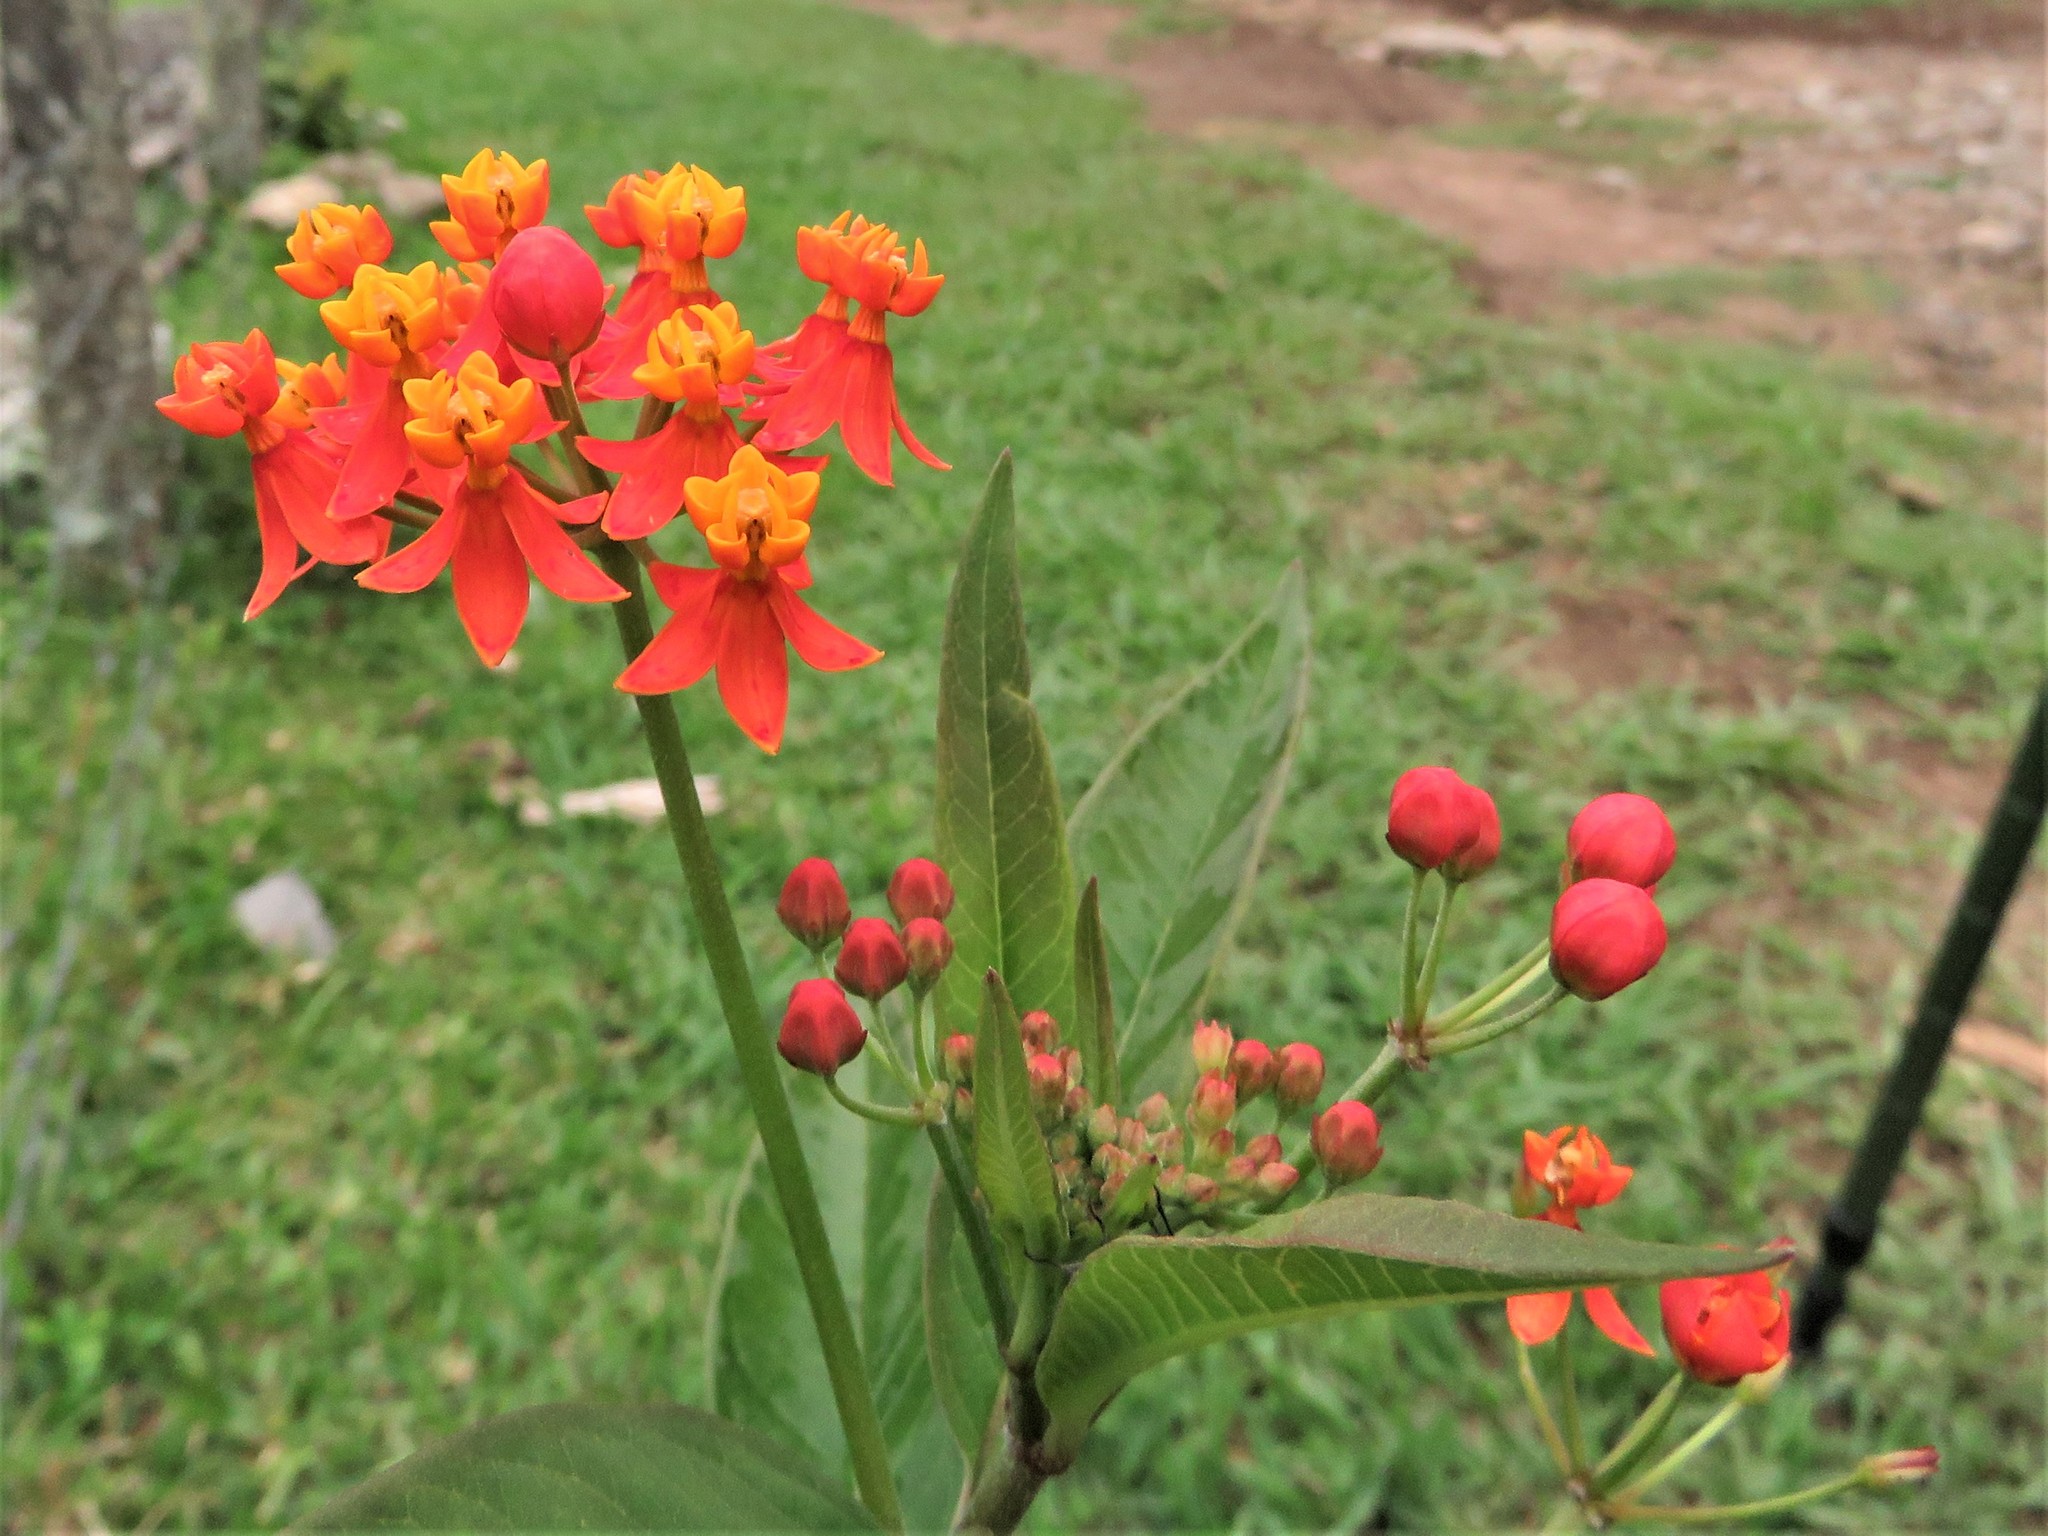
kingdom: Plantae
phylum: Tracheophyta
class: Magnoliopsida
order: Gentianales
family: Apocynaceae
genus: Asclepias
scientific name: Asclepias curassavica
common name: Bloodflower
